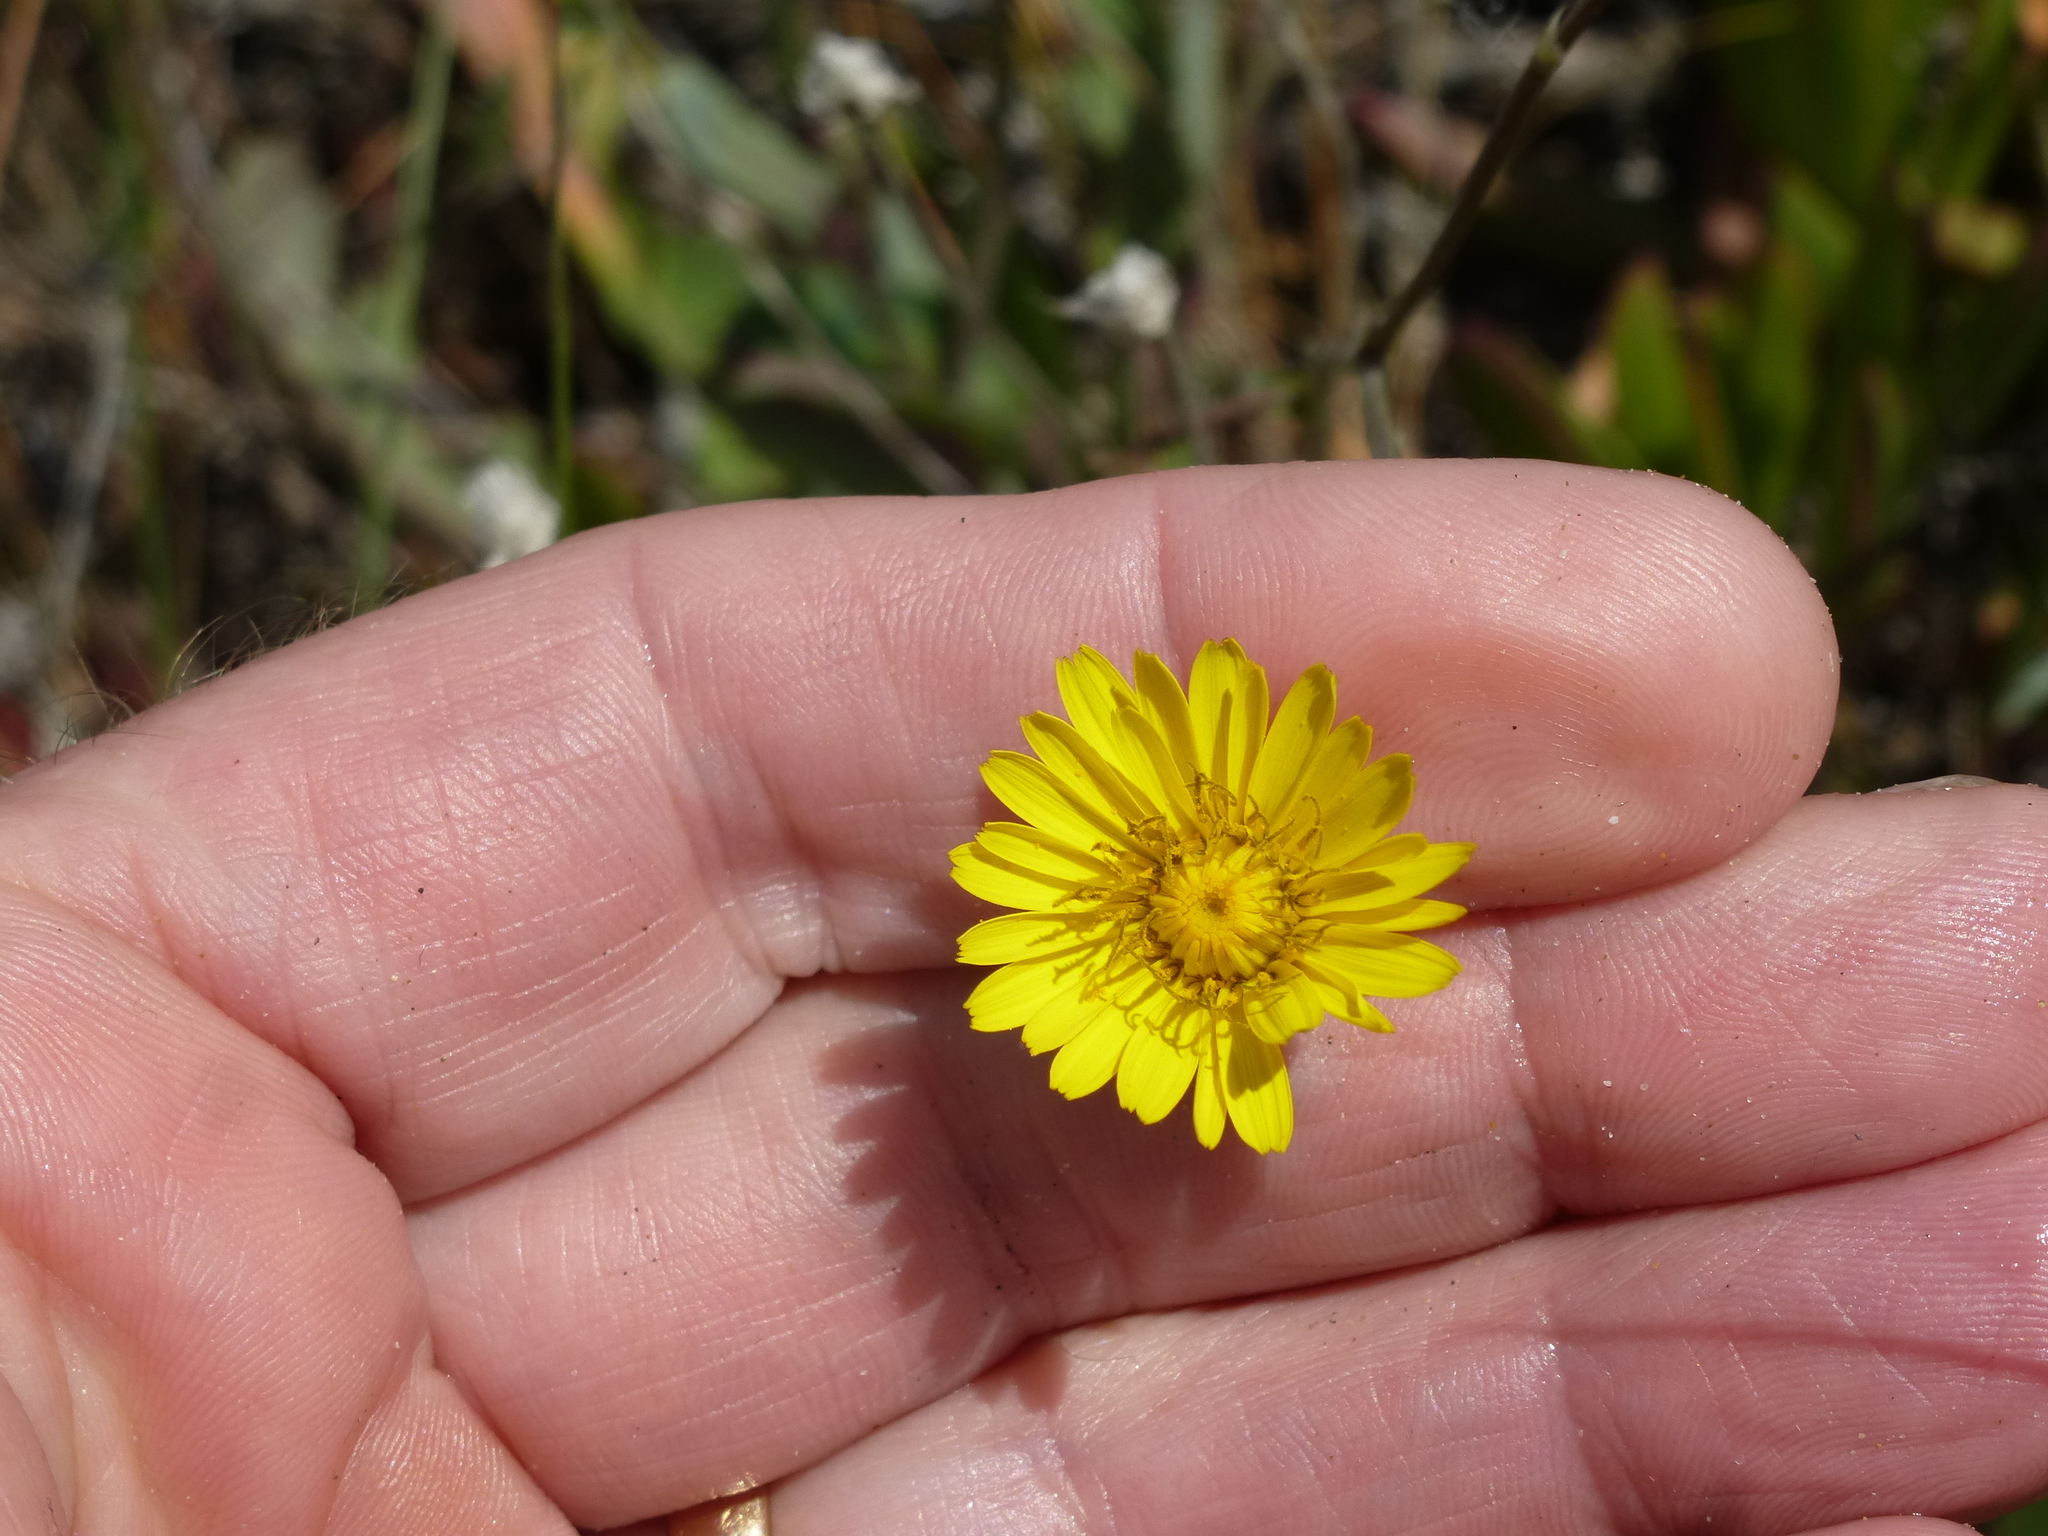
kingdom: Plantae
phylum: Tracheophyta
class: Magnoliopsida
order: Asterales
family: Asteraceae
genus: Reichardia
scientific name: Reichardia picroides
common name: Common brighteyes
